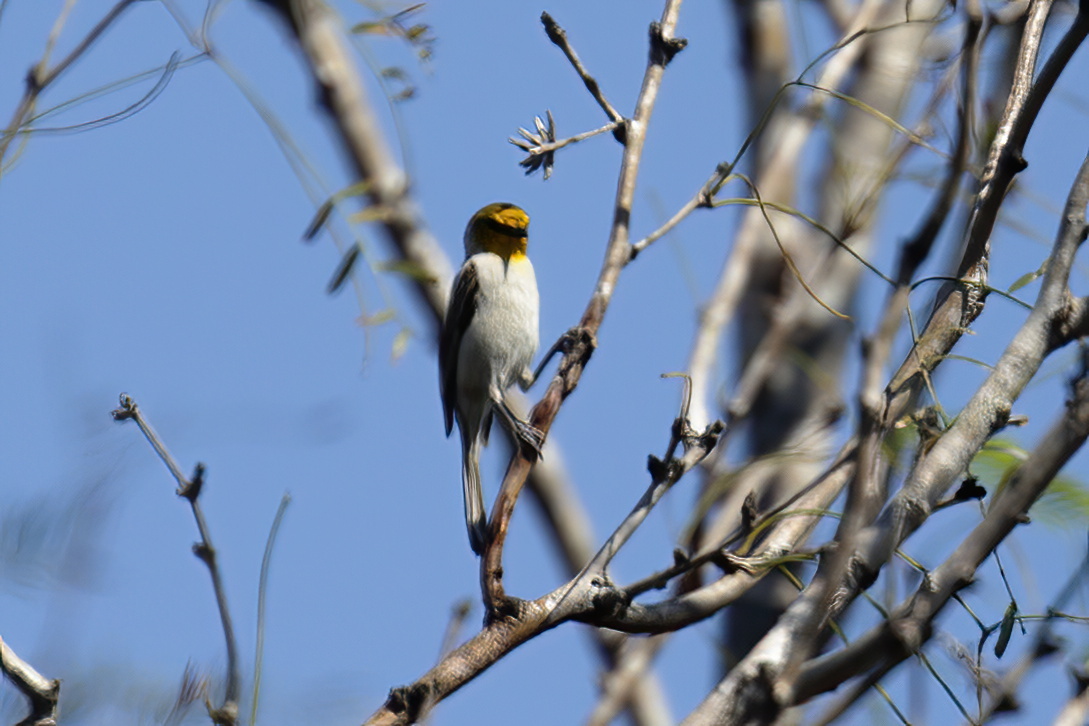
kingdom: Animalia
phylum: Chordata
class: Aves
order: Passeriformes
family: Remizidae
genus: Auriparus
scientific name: Auriparus flaviceps
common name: Verdin
